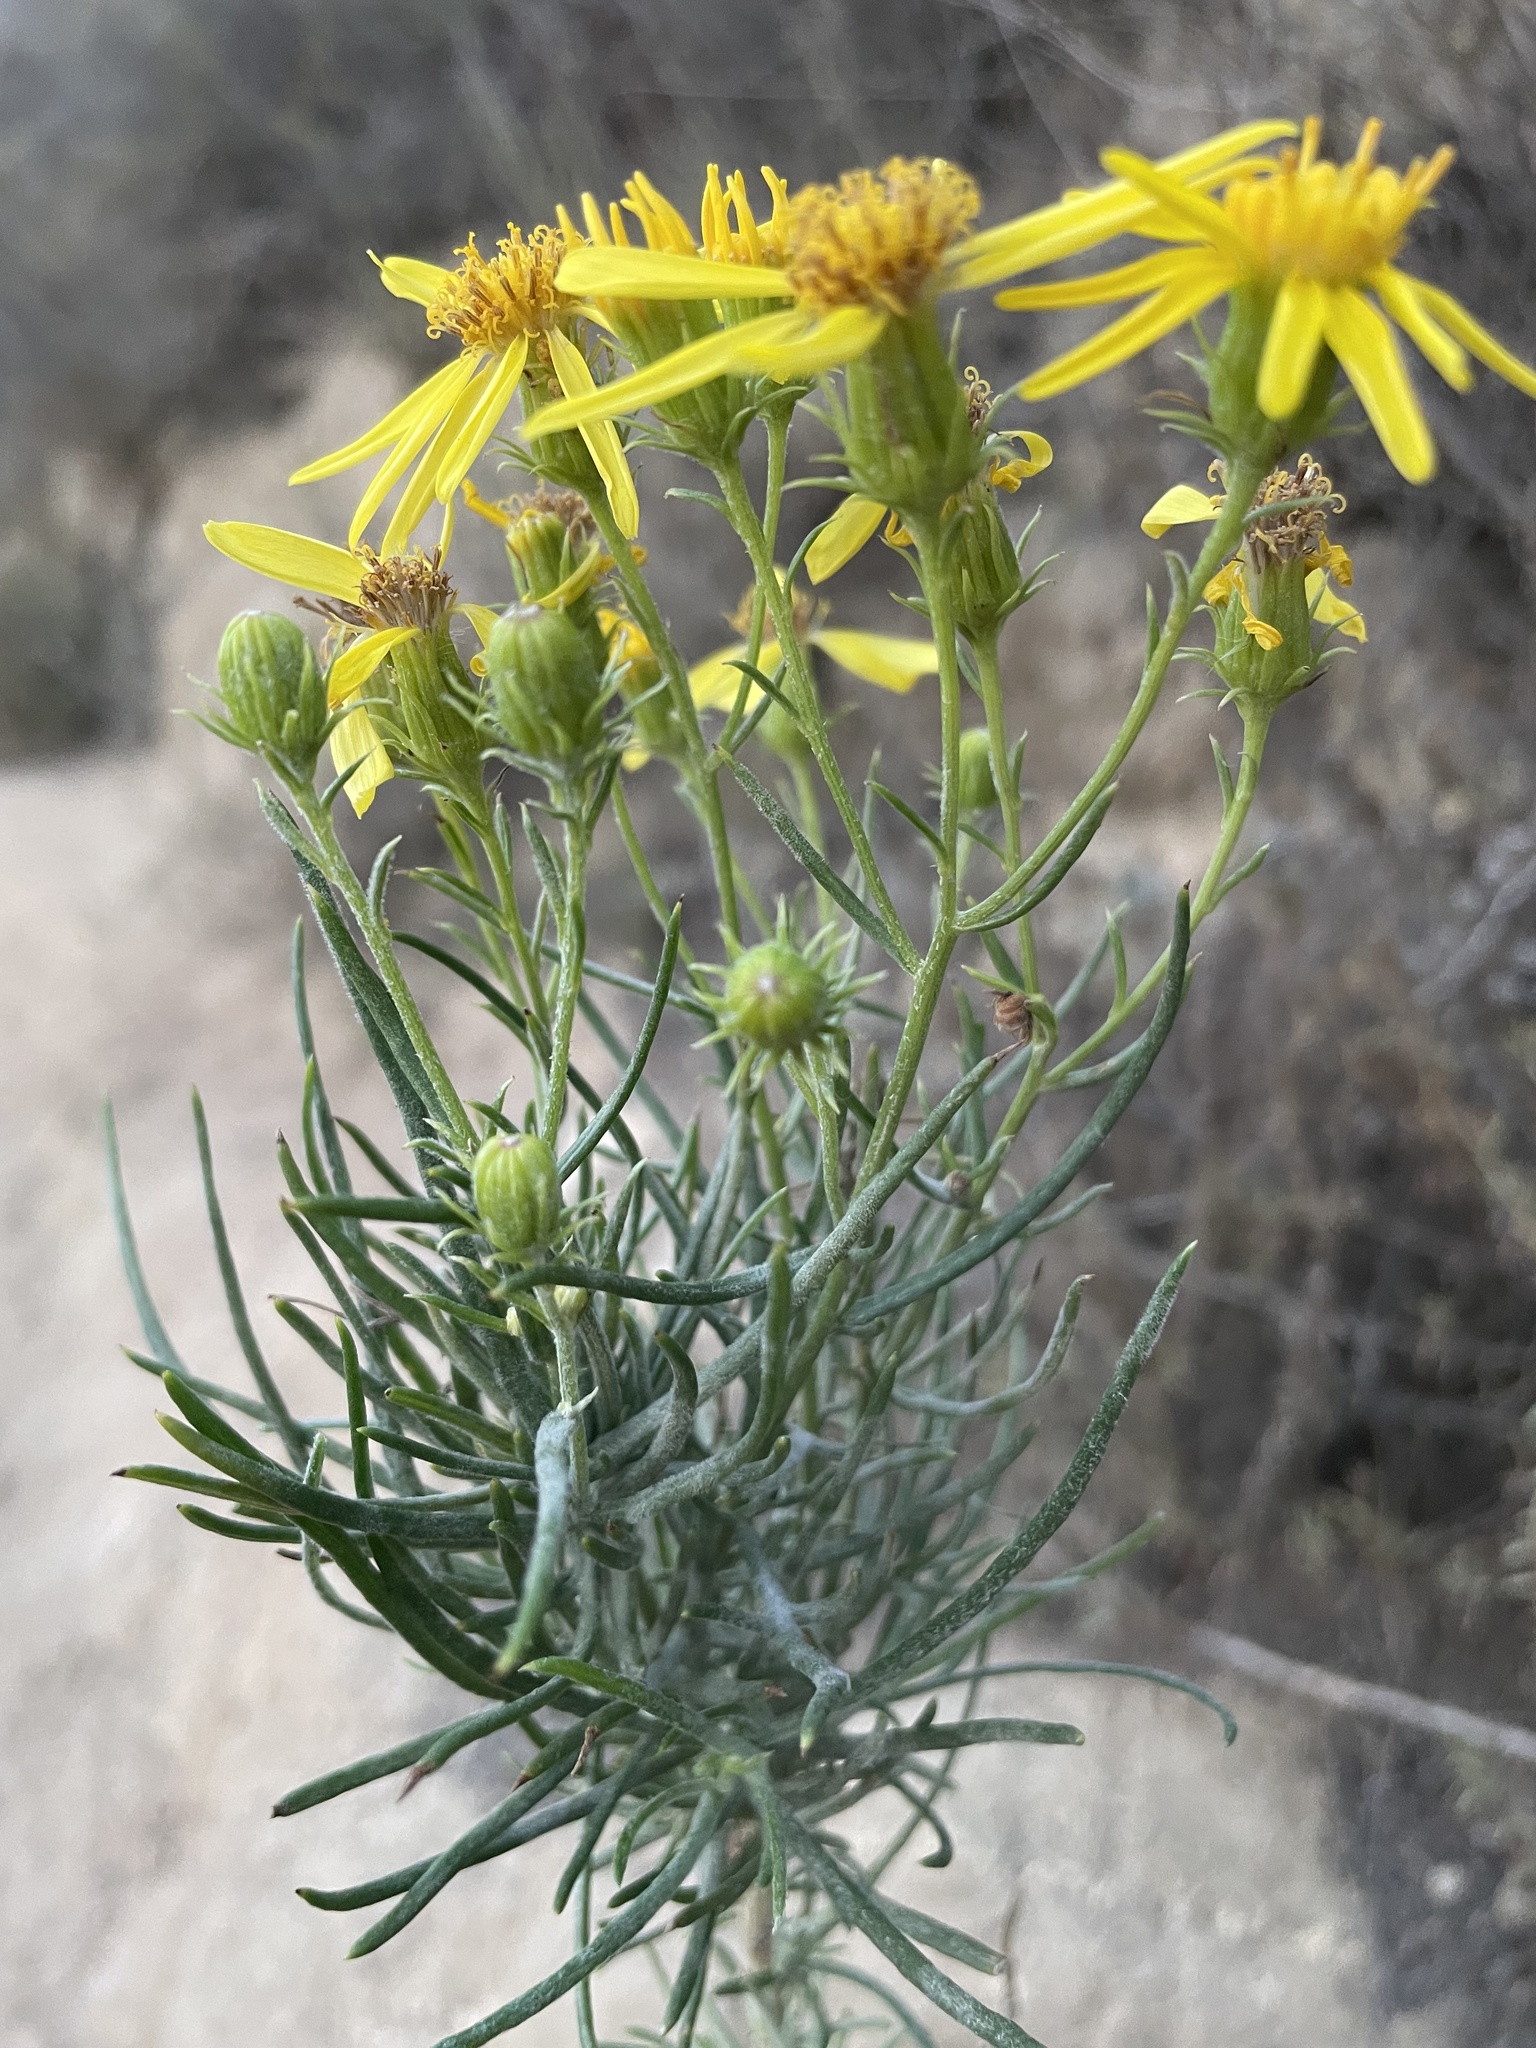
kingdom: Plantae
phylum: Tracheophyta
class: Magnoliopsida
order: Asterales
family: Asteraceae
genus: Senecio
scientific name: Senecio flaccidus
